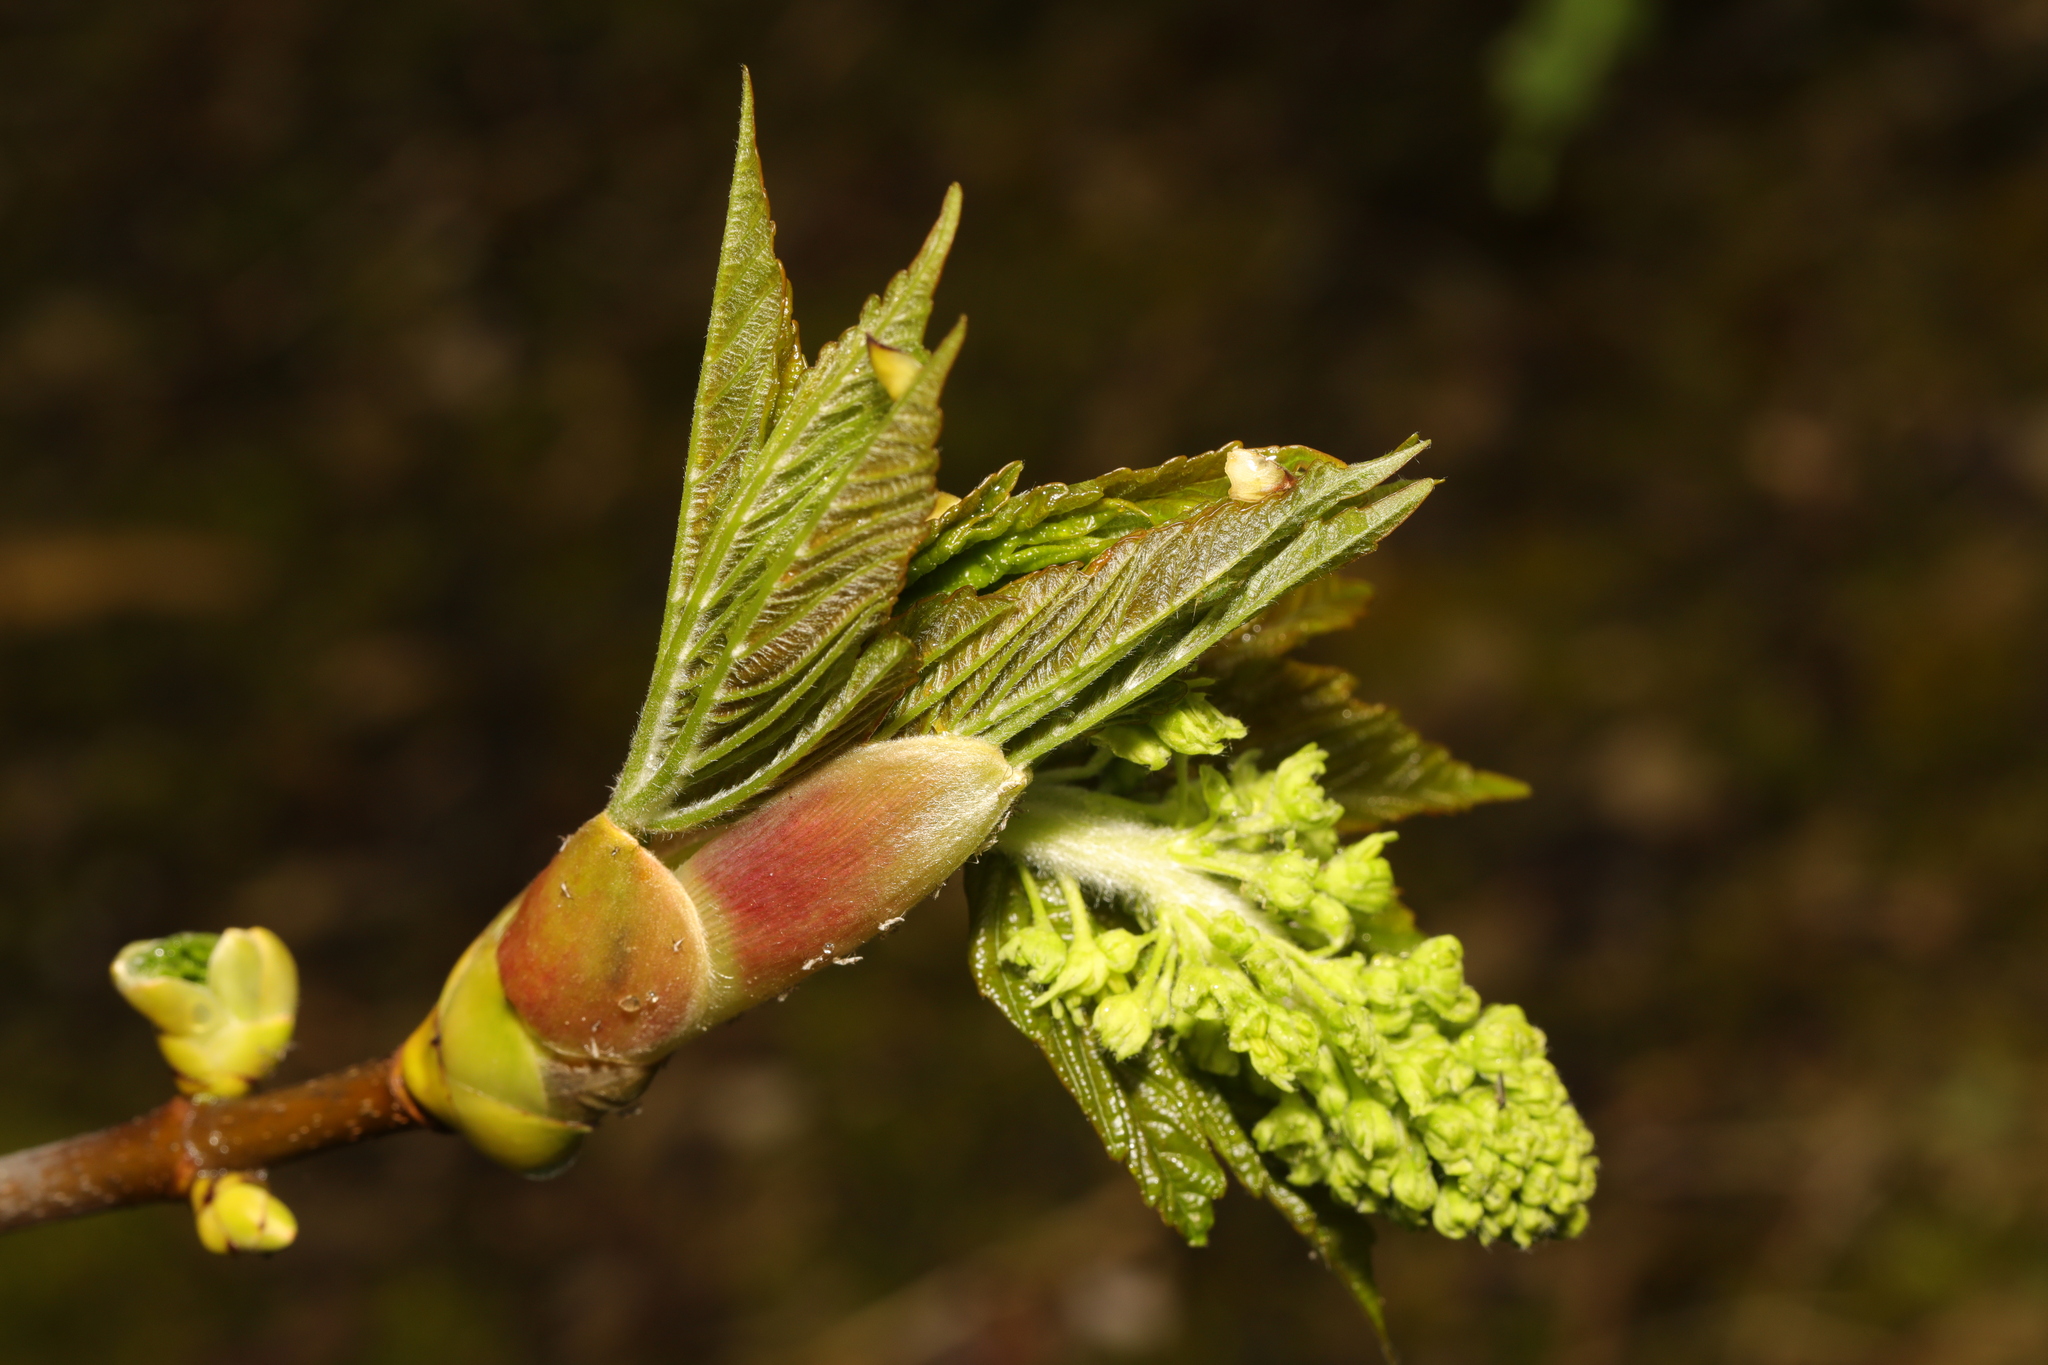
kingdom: Plantae
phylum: Tracheophyta
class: Magnoliopsida
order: Sapindales
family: Sapindaceae
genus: Acer
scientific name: Acer pseudoplatanus
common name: Sycamore
